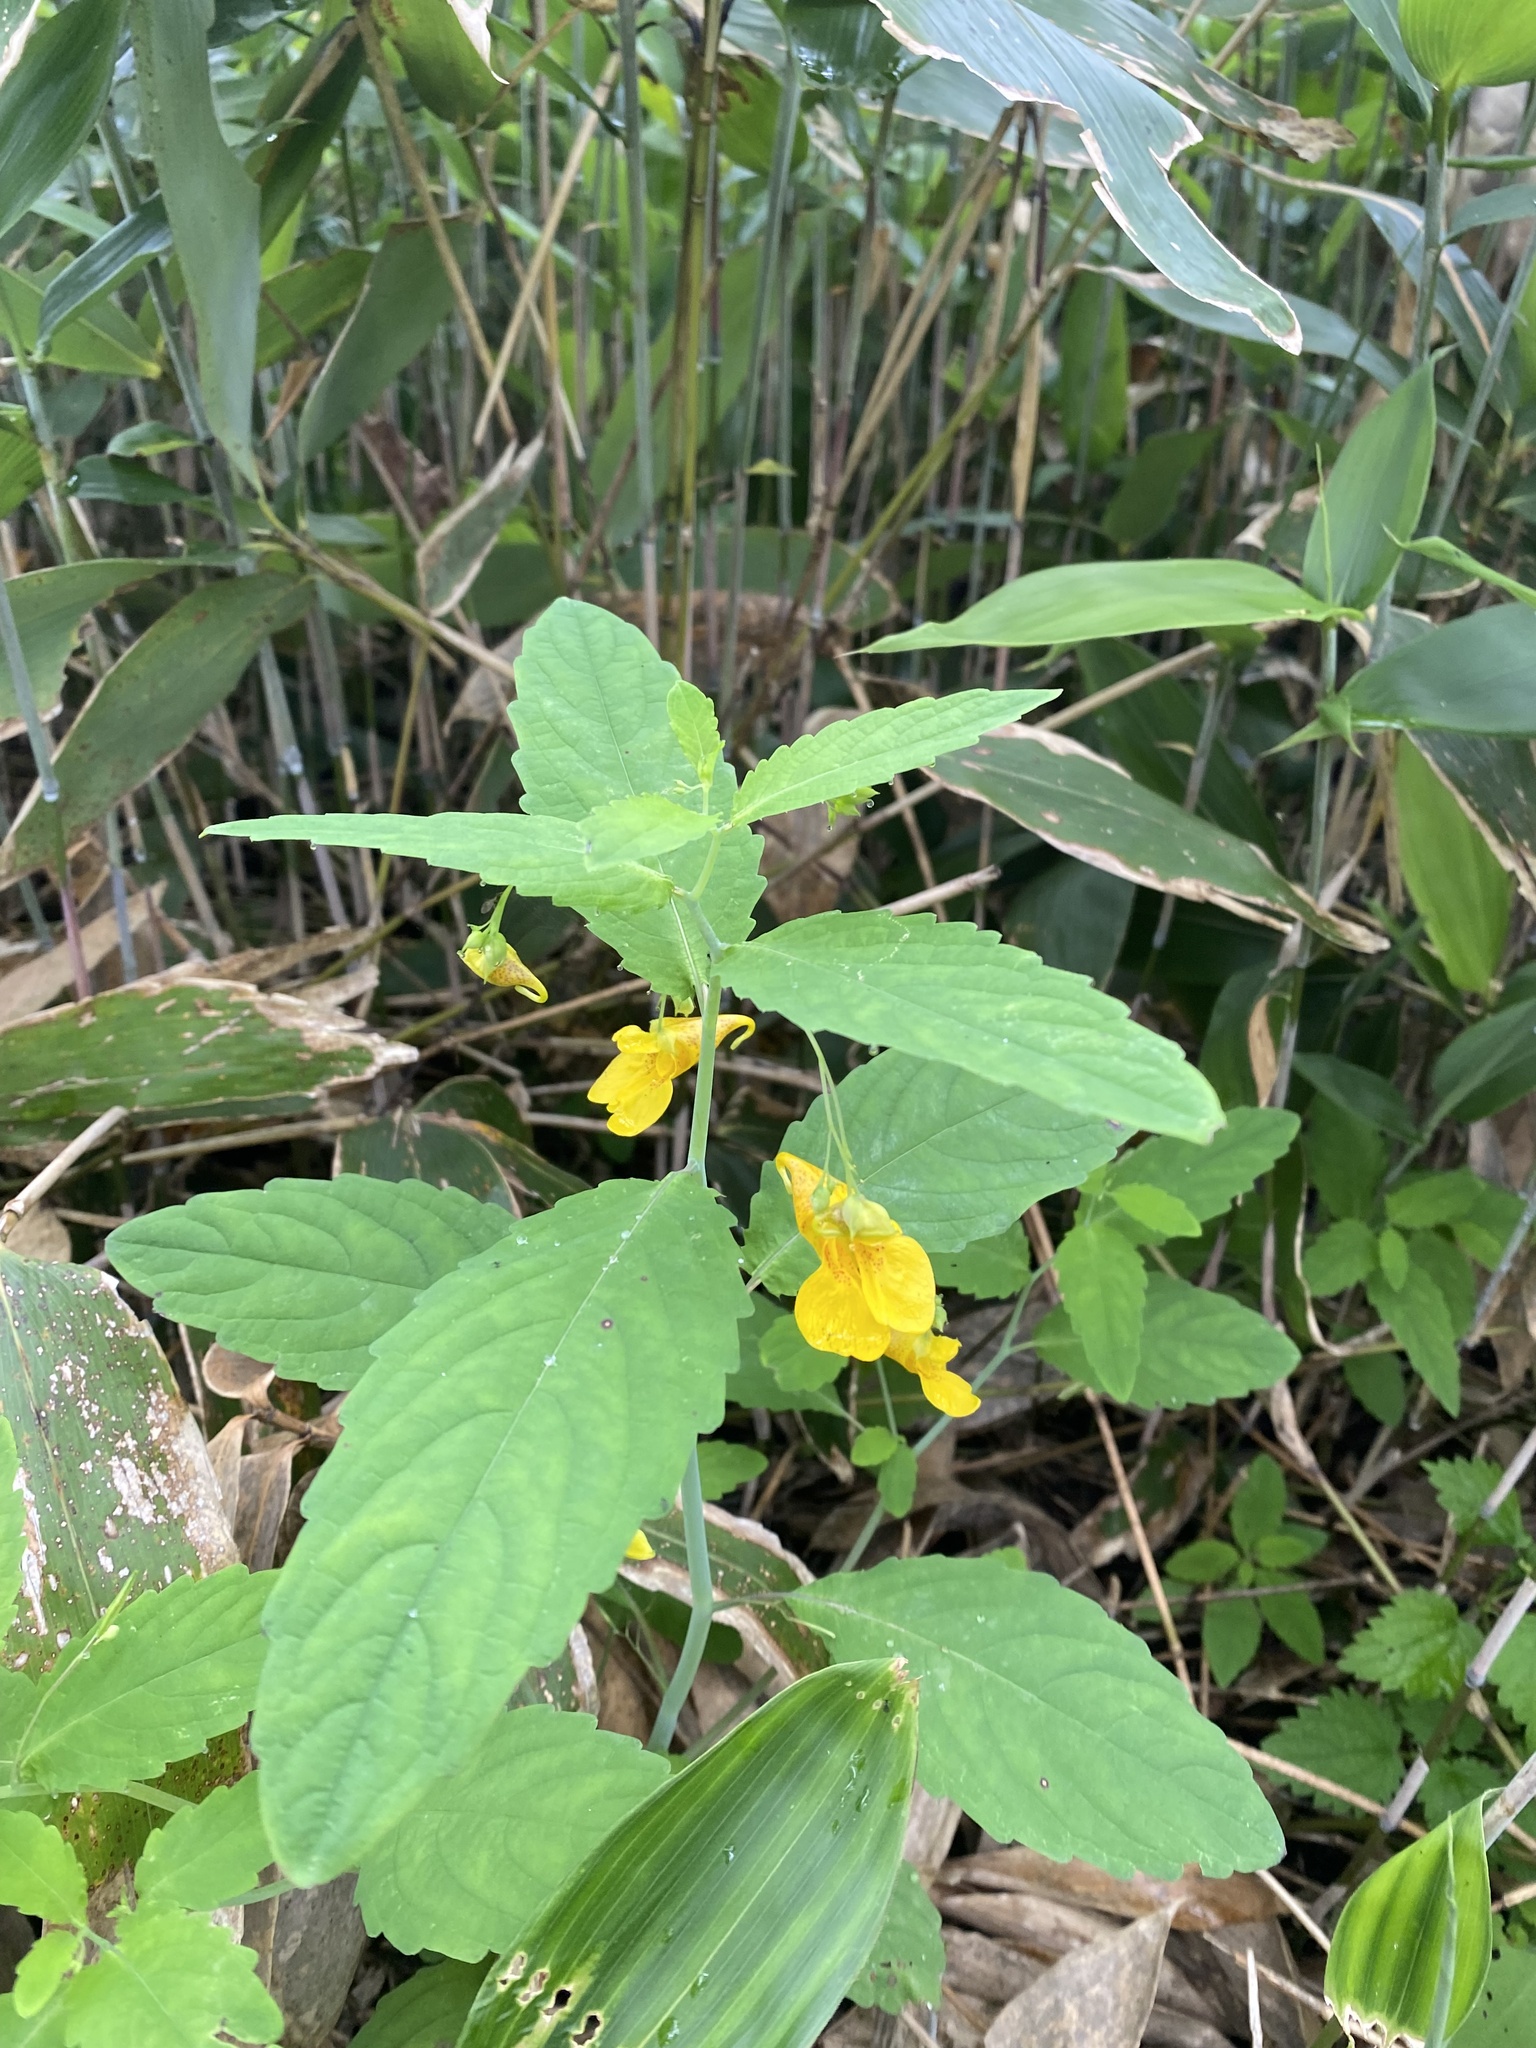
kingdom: Plantae
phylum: Tracheophyta
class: Magnoliopsida
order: Ericales
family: Balsaminaceae
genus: Impatiens
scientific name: Impatiens noli-tangere
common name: Touch-me-not balsam
